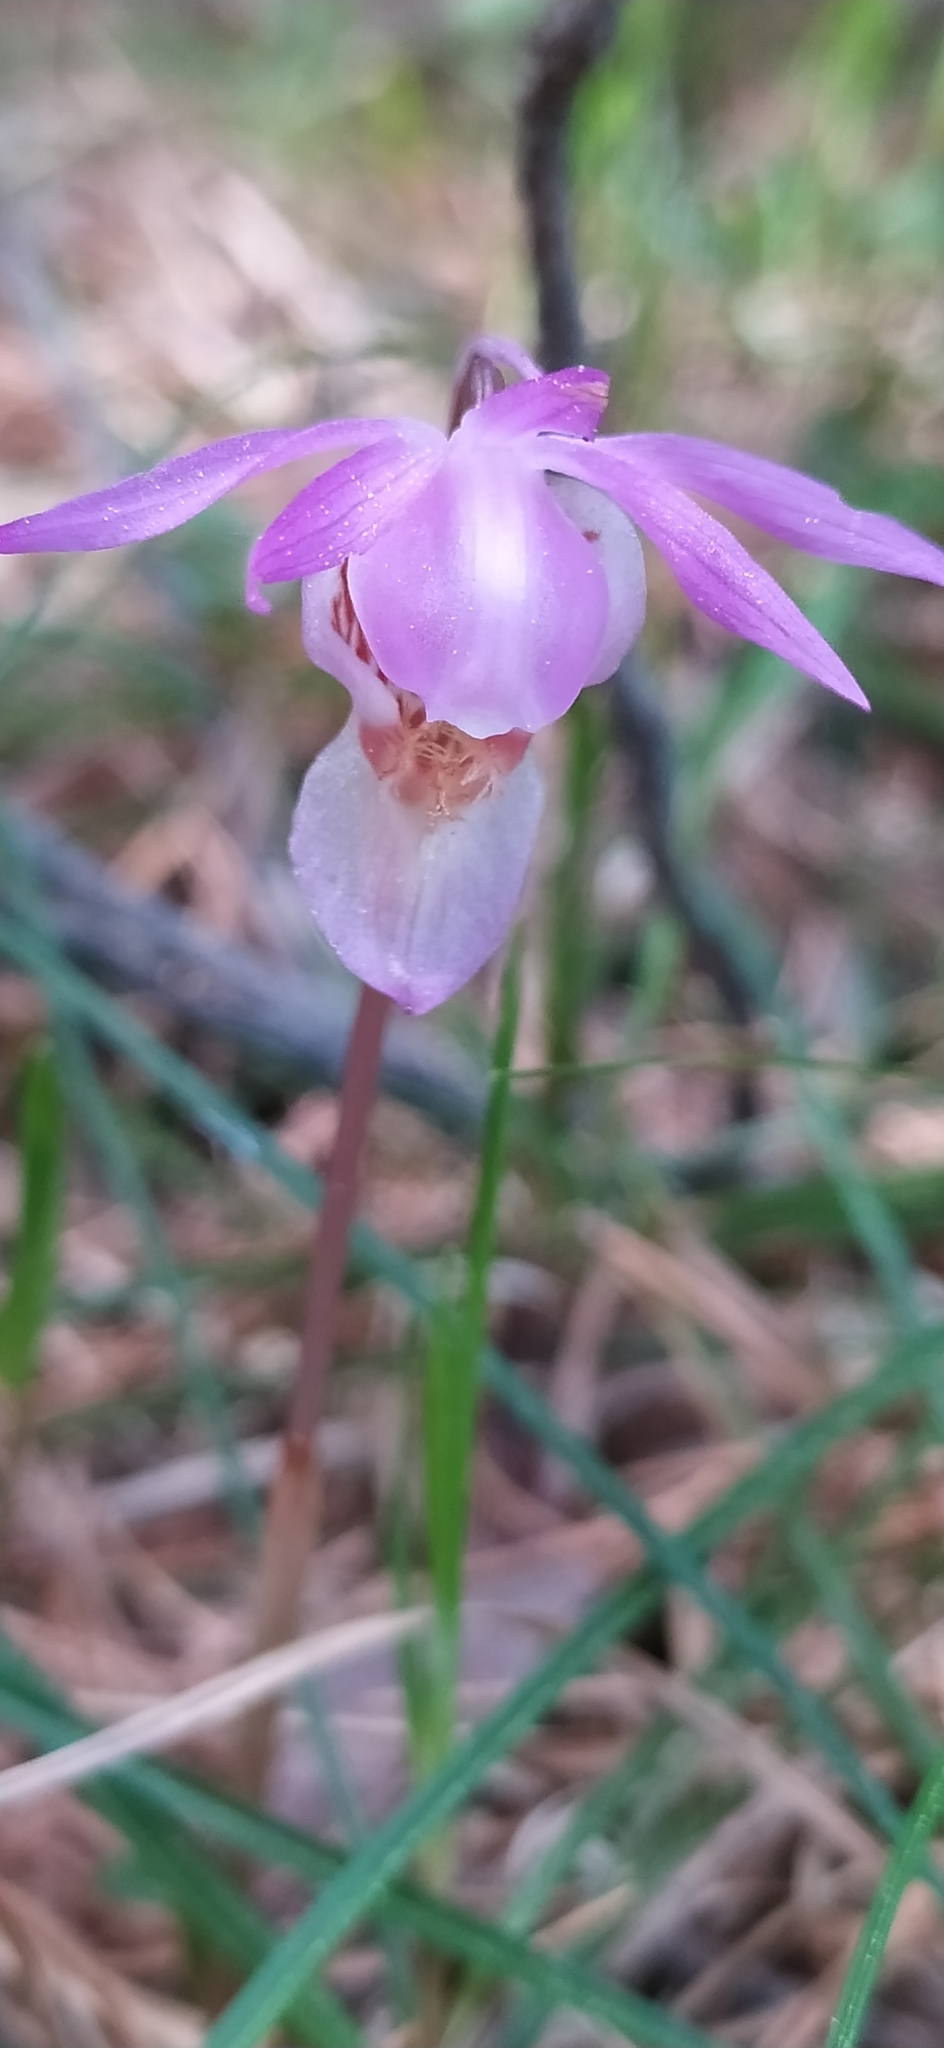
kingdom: Plantae
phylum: Tracheophyta
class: Liliopsida
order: Asparagales
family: Orchidaceae
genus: Calypso
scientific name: Calypso bulbosa
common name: Calypso
